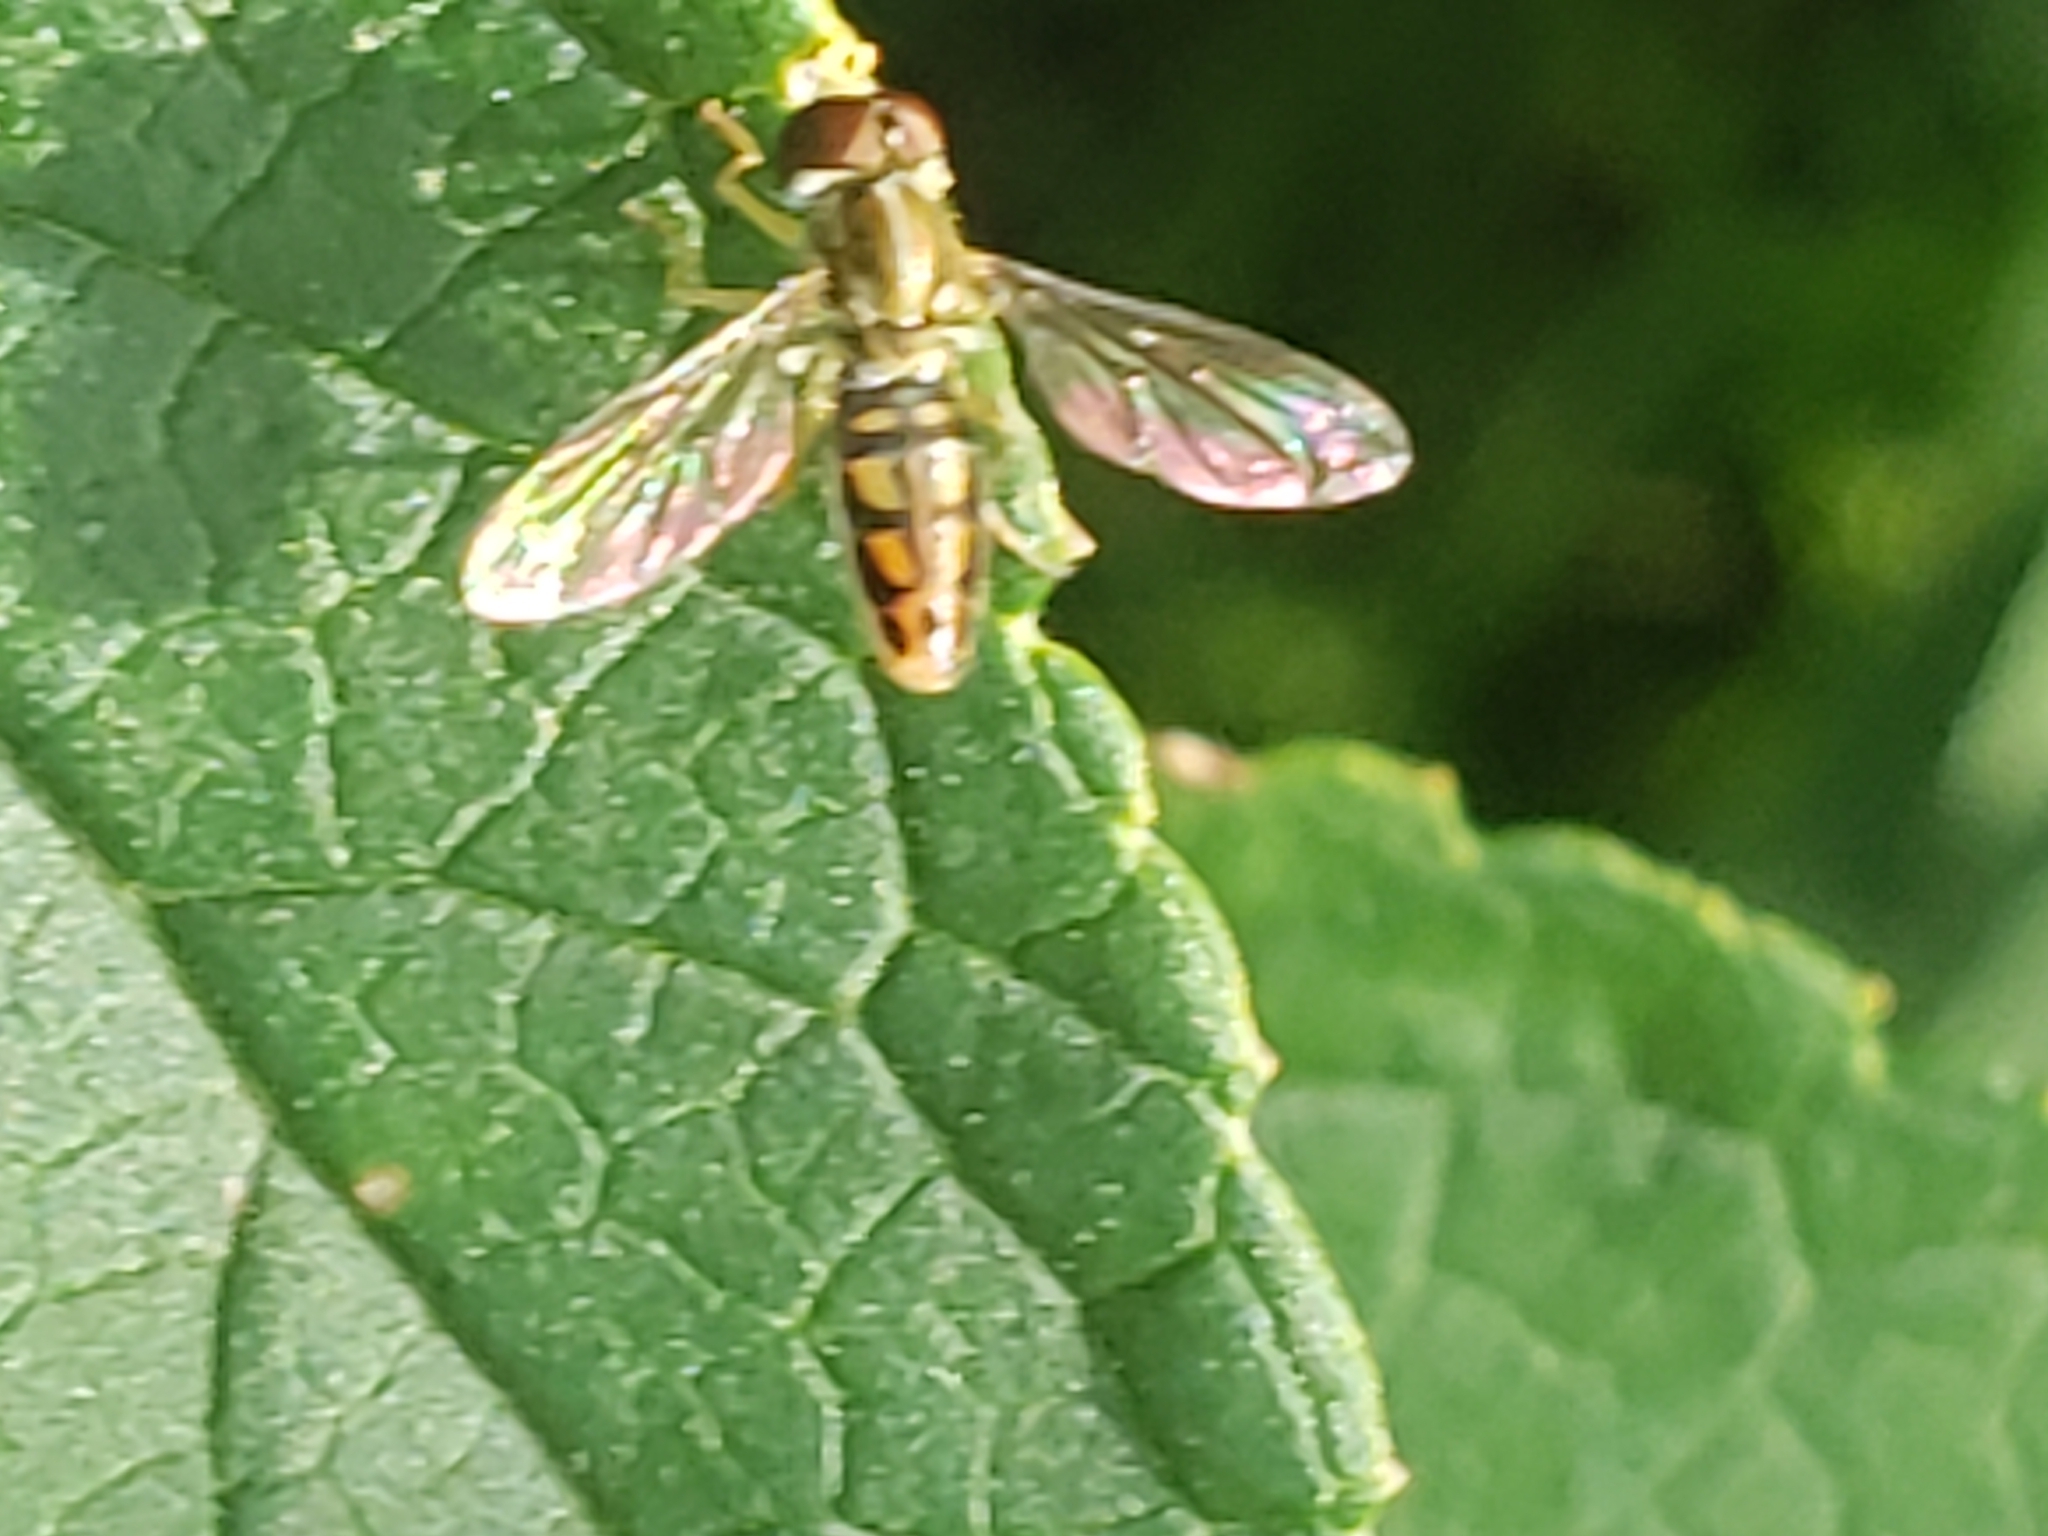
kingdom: Animalia
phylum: Arthropoda
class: Insecta
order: Diptera
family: Syrphidae
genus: Toxomerus
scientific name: Toxomerus marginatus
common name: Syrphid fly
